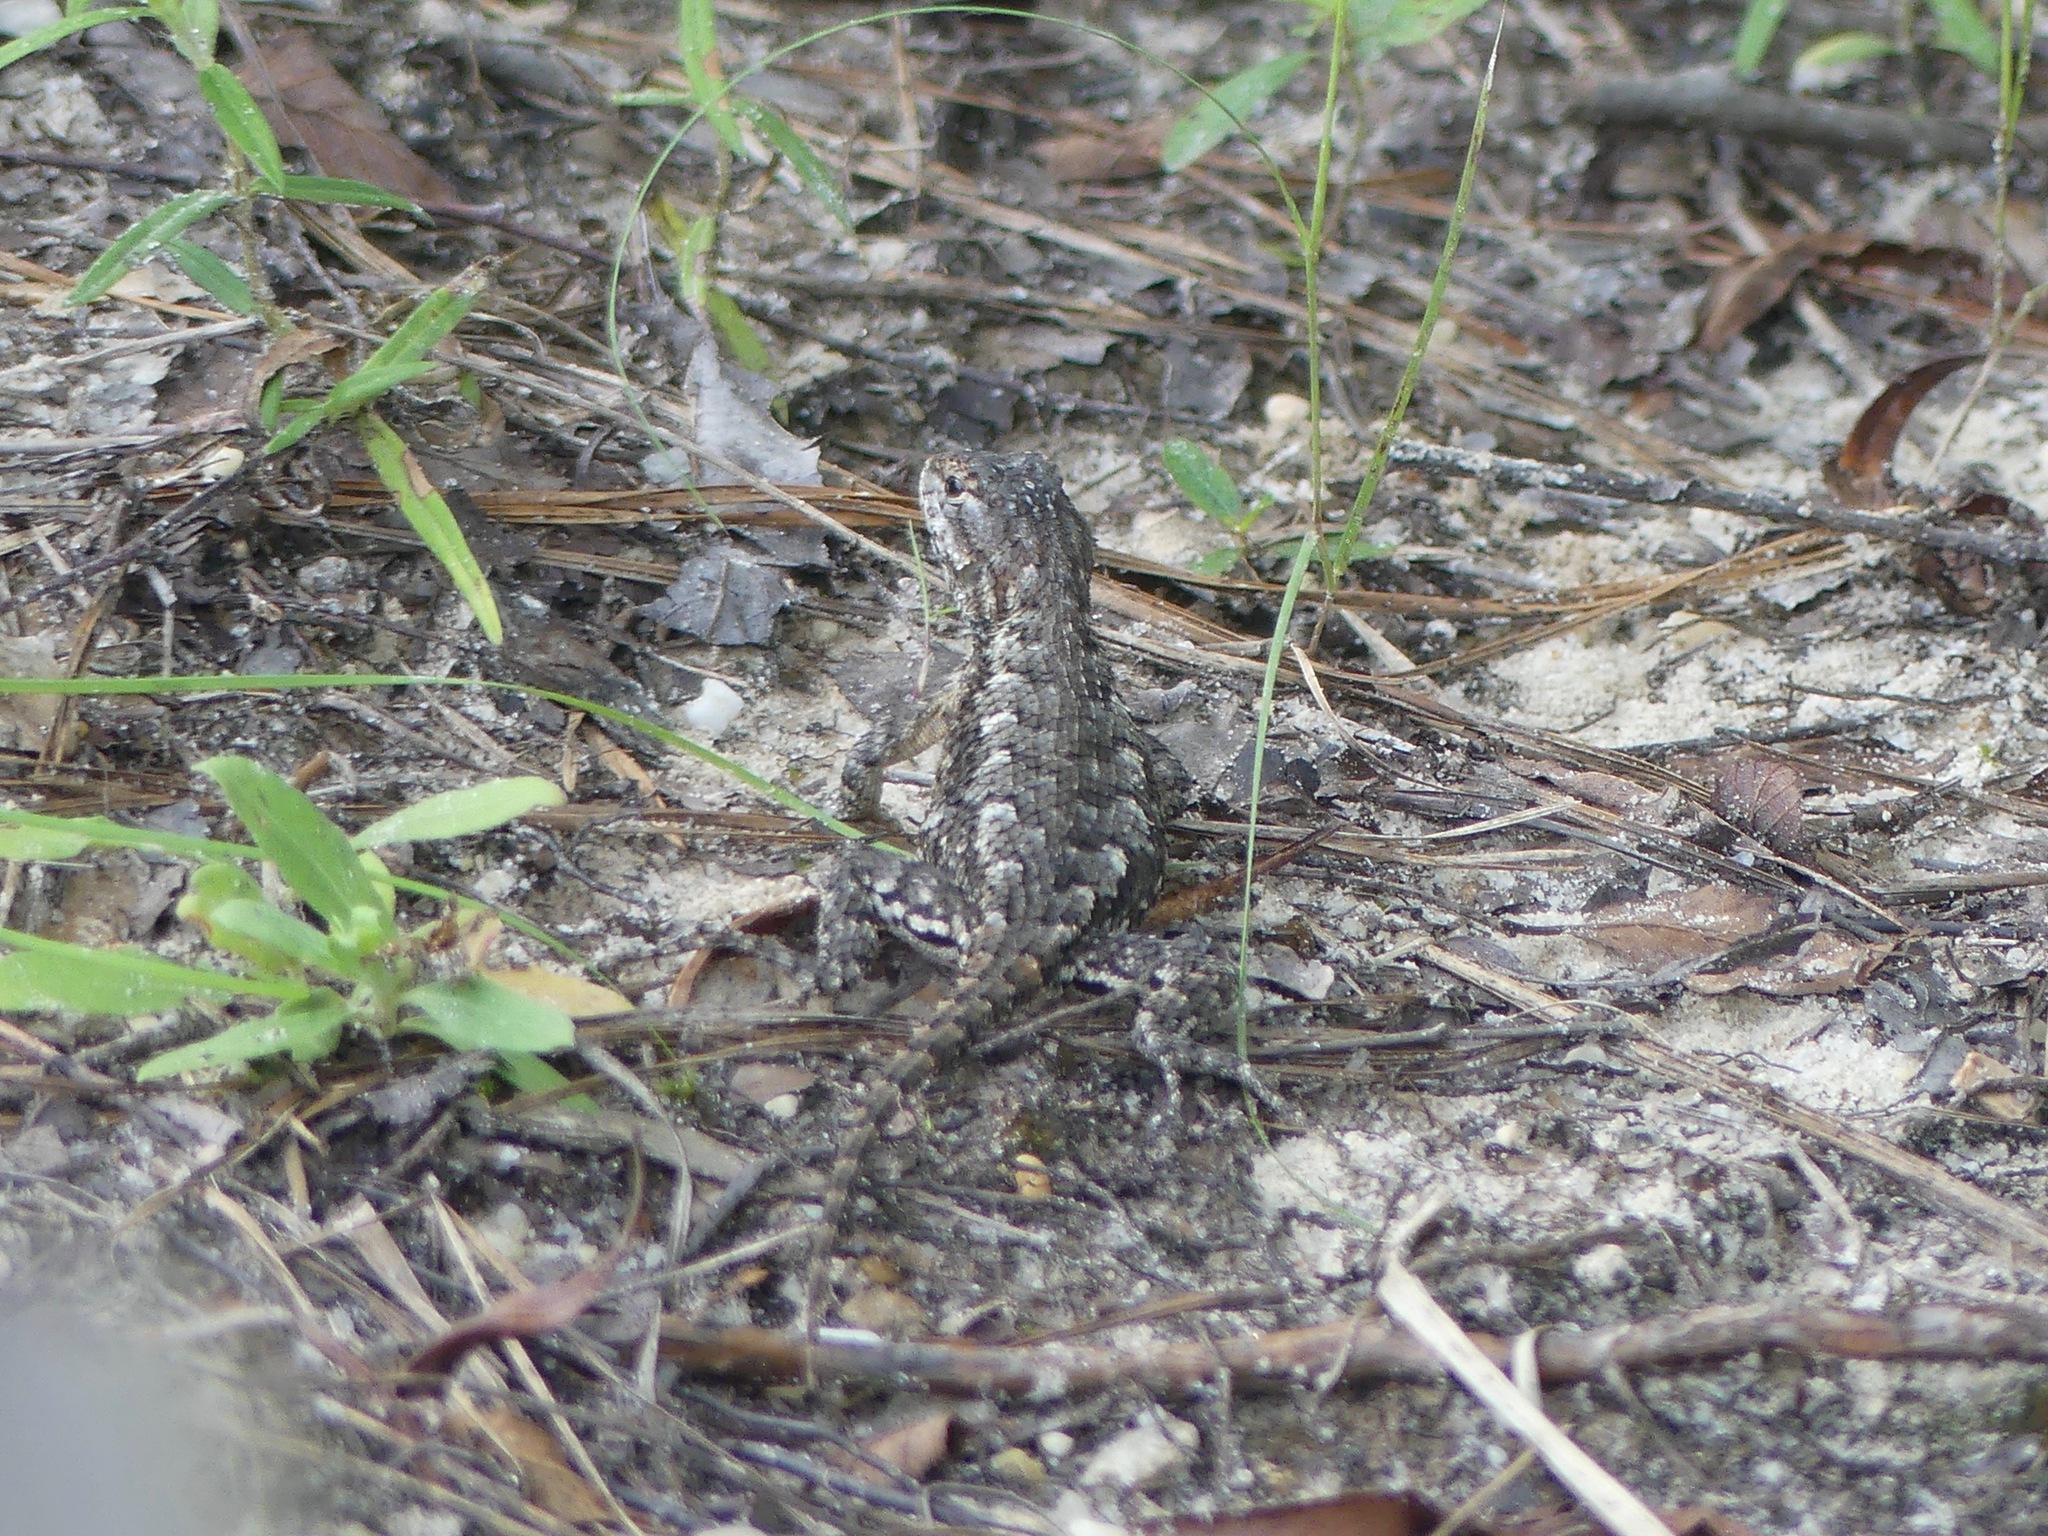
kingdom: Animalia
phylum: Chordata
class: Squamata
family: Phrynosomatidae
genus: Sceloporus
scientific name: Sceloporus consobrinus
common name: Southern prairie lizard
